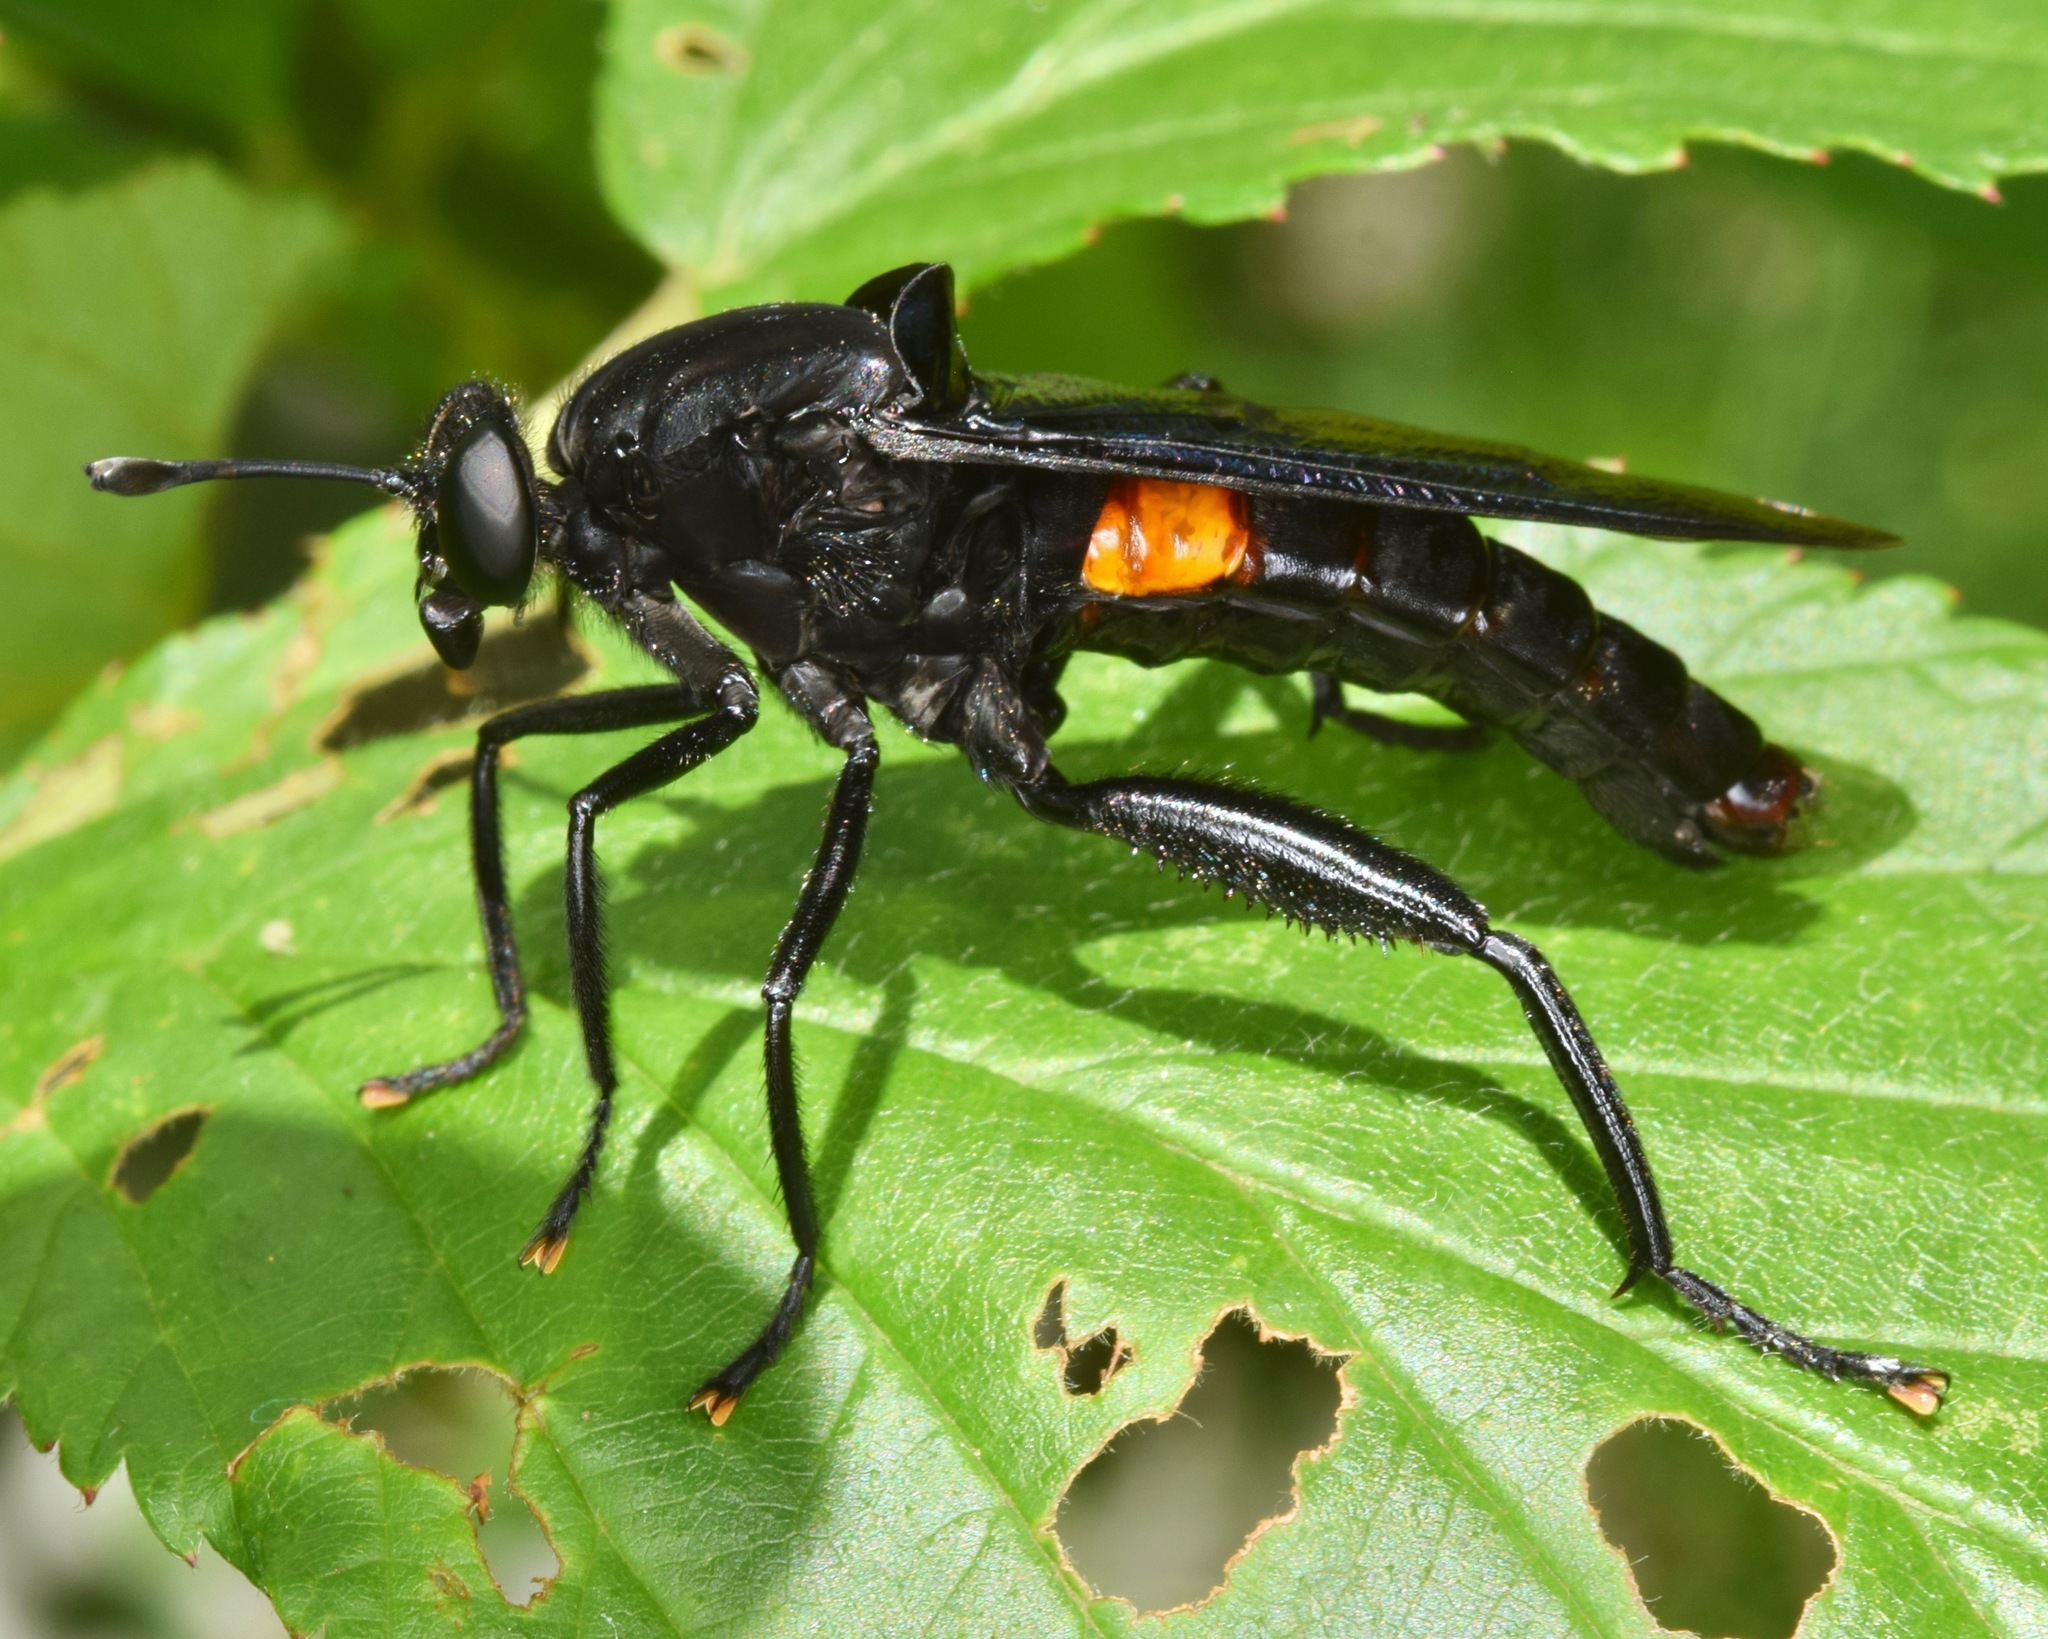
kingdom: Animalia
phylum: Arthropoda
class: Insecta
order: Diptera
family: Mydidae
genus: Mydas
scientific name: Mydas clavatus
